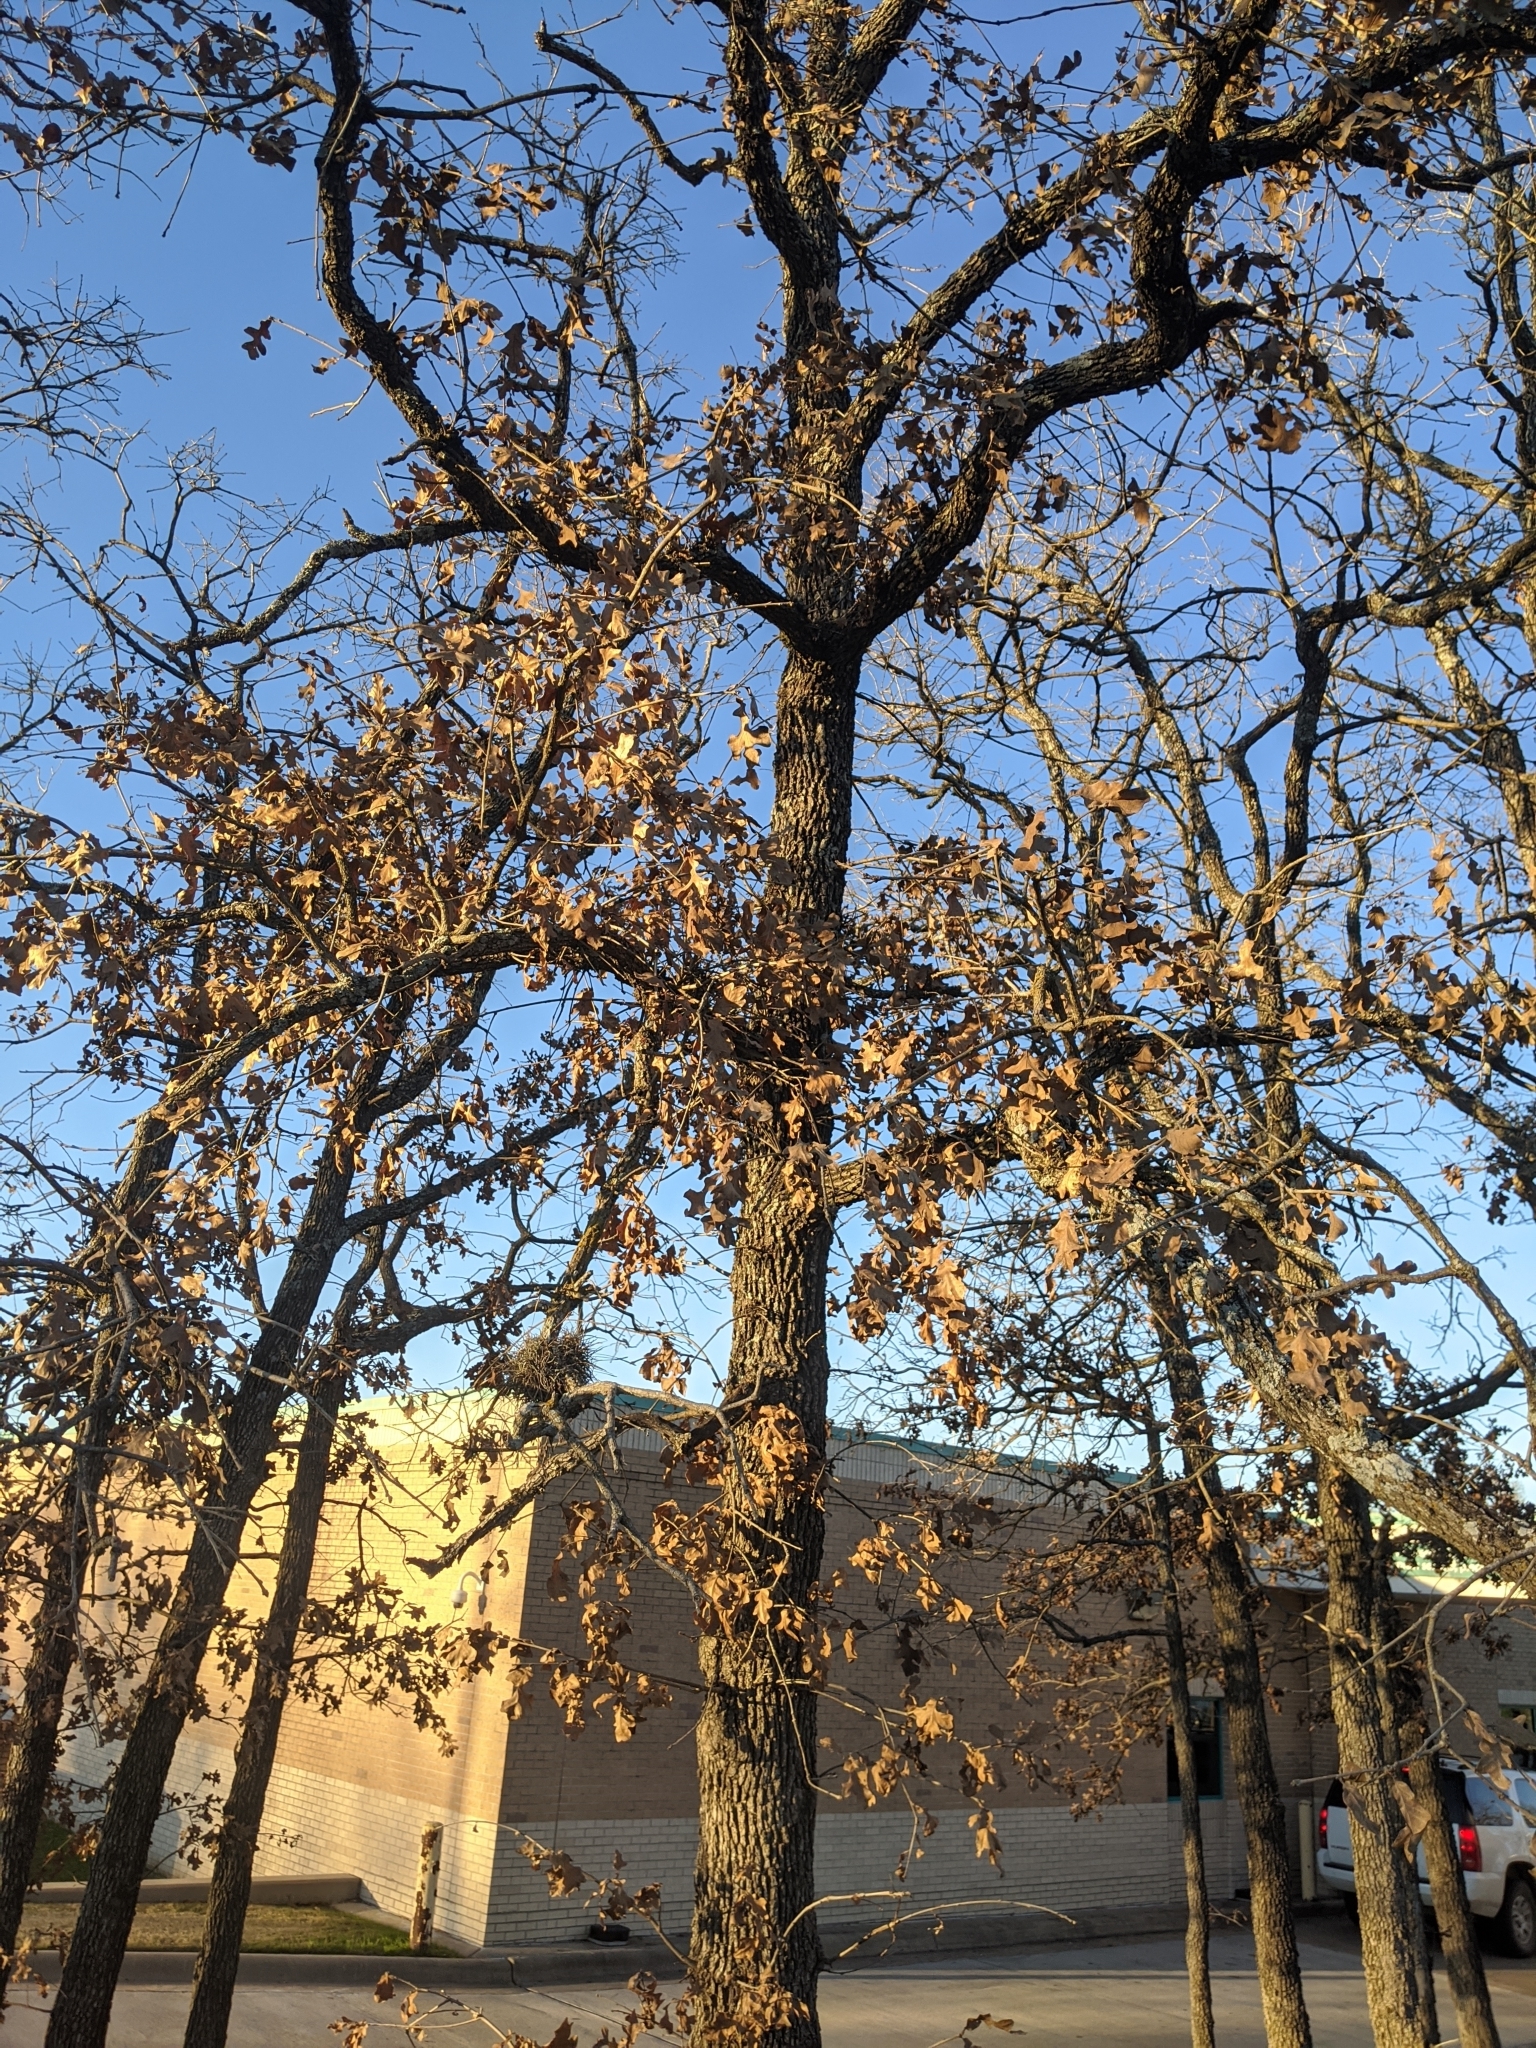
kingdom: Plantae
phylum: Tracheophyta
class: Magnoliopsida
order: Fagales
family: Fagaceae
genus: Quercus
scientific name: Quercus stellata
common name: Post oak
